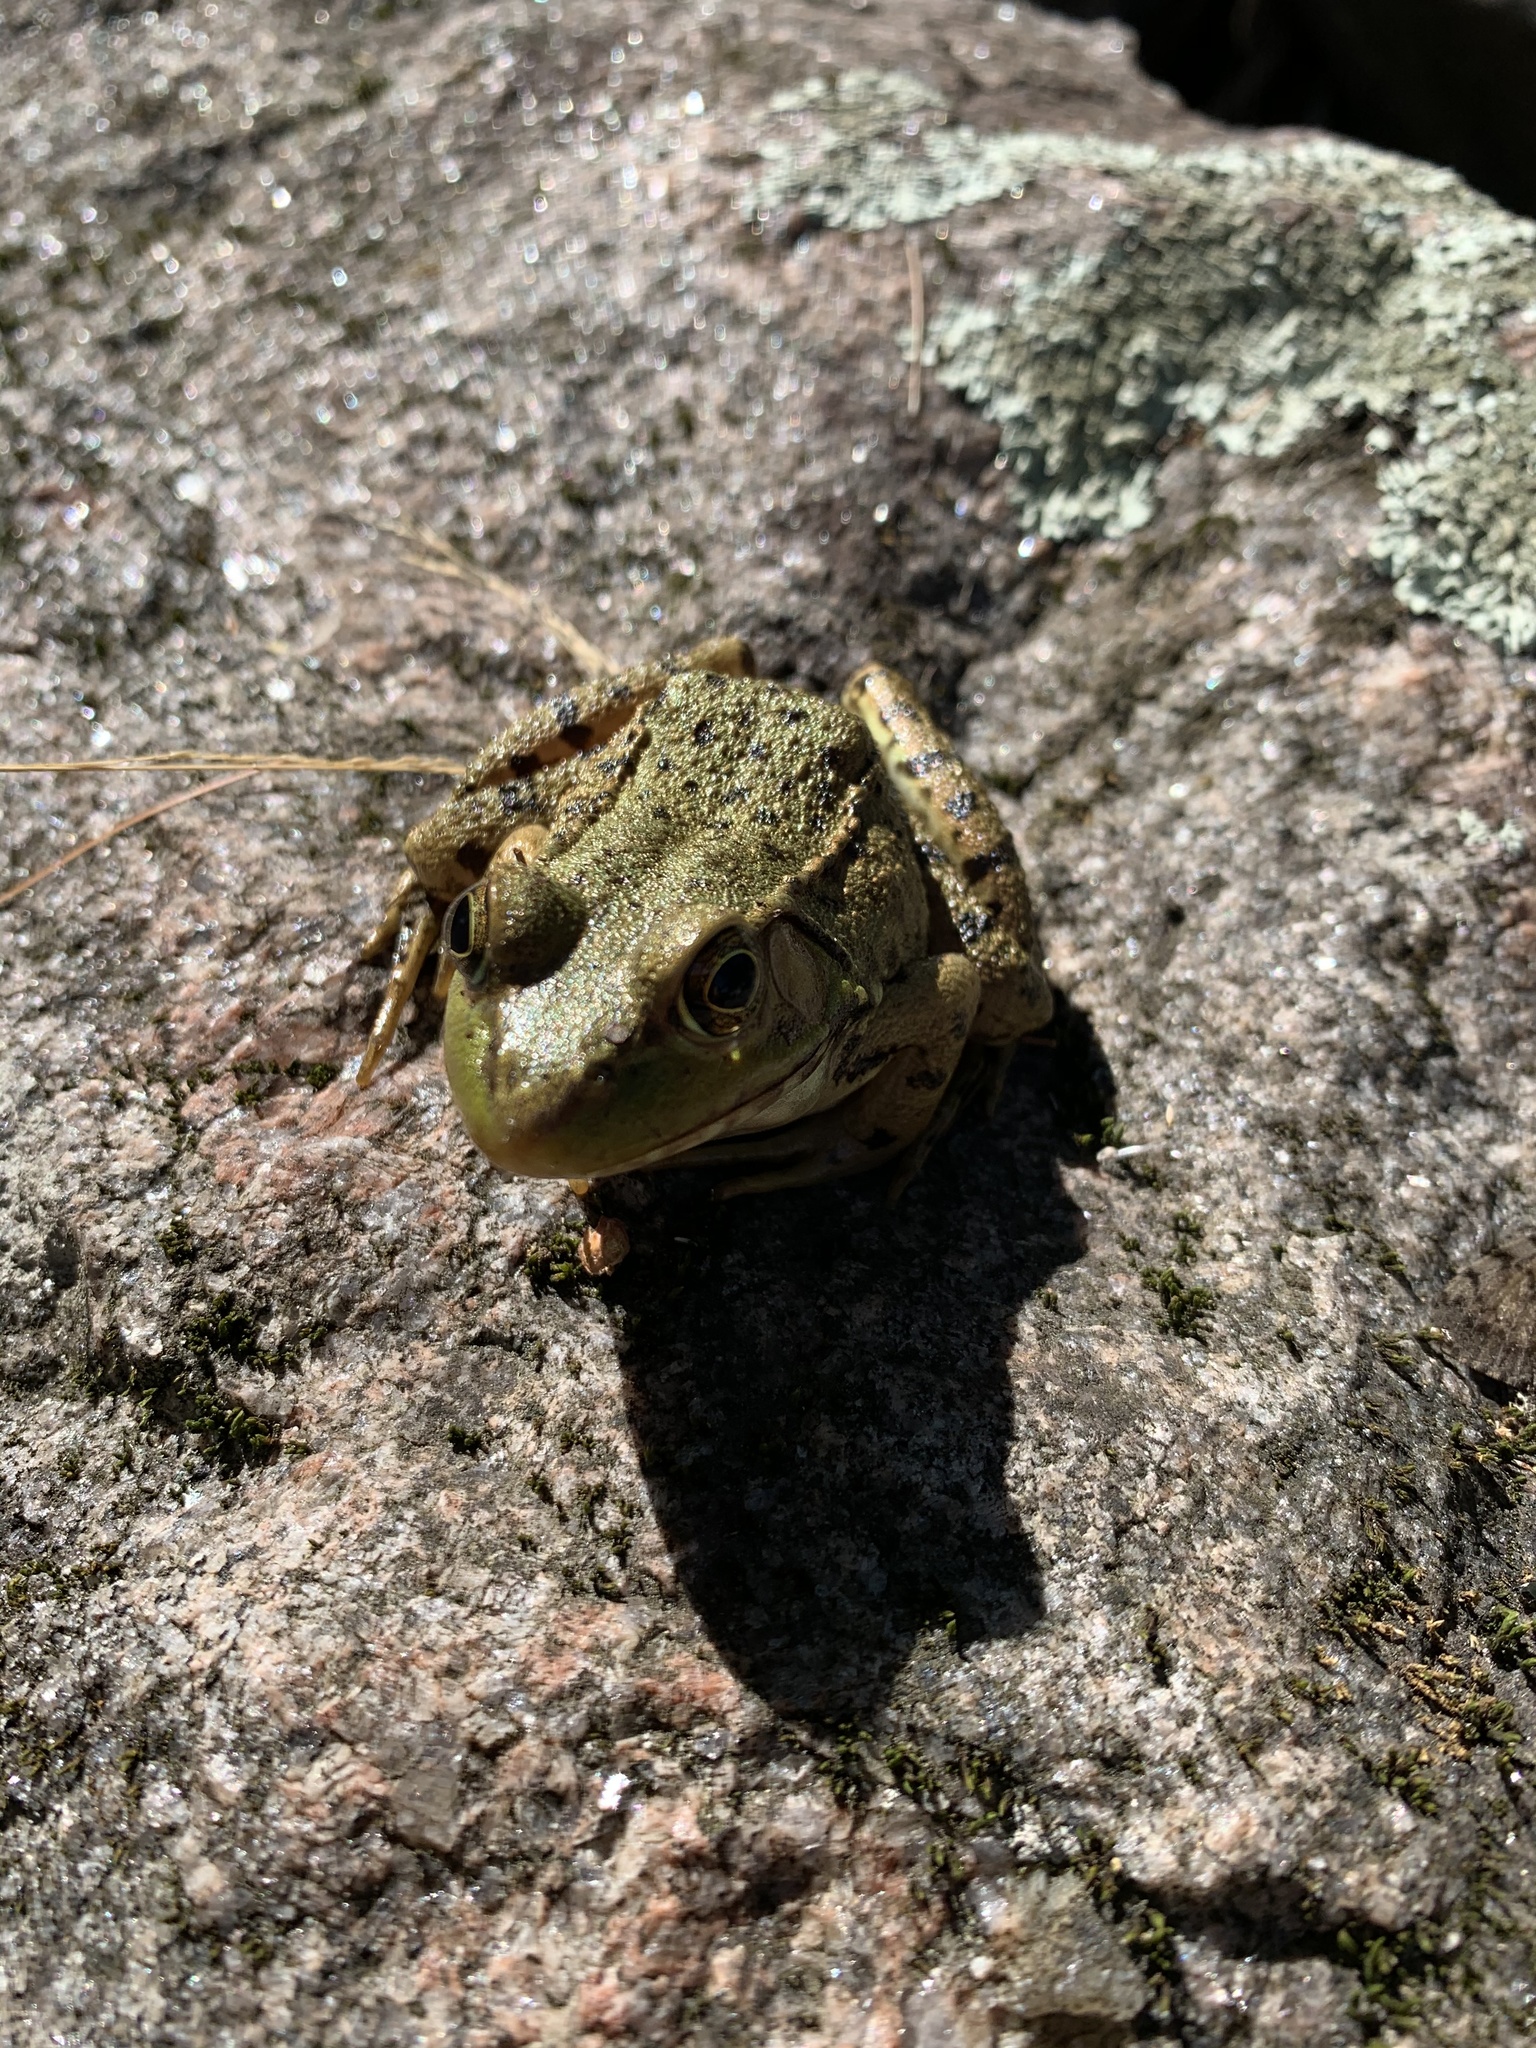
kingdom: Animalia
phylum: Chordata
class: Amphibia
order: Anura
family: Ranidae
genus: Lithobates
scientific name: Lithobates clamitans
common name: Green frog
